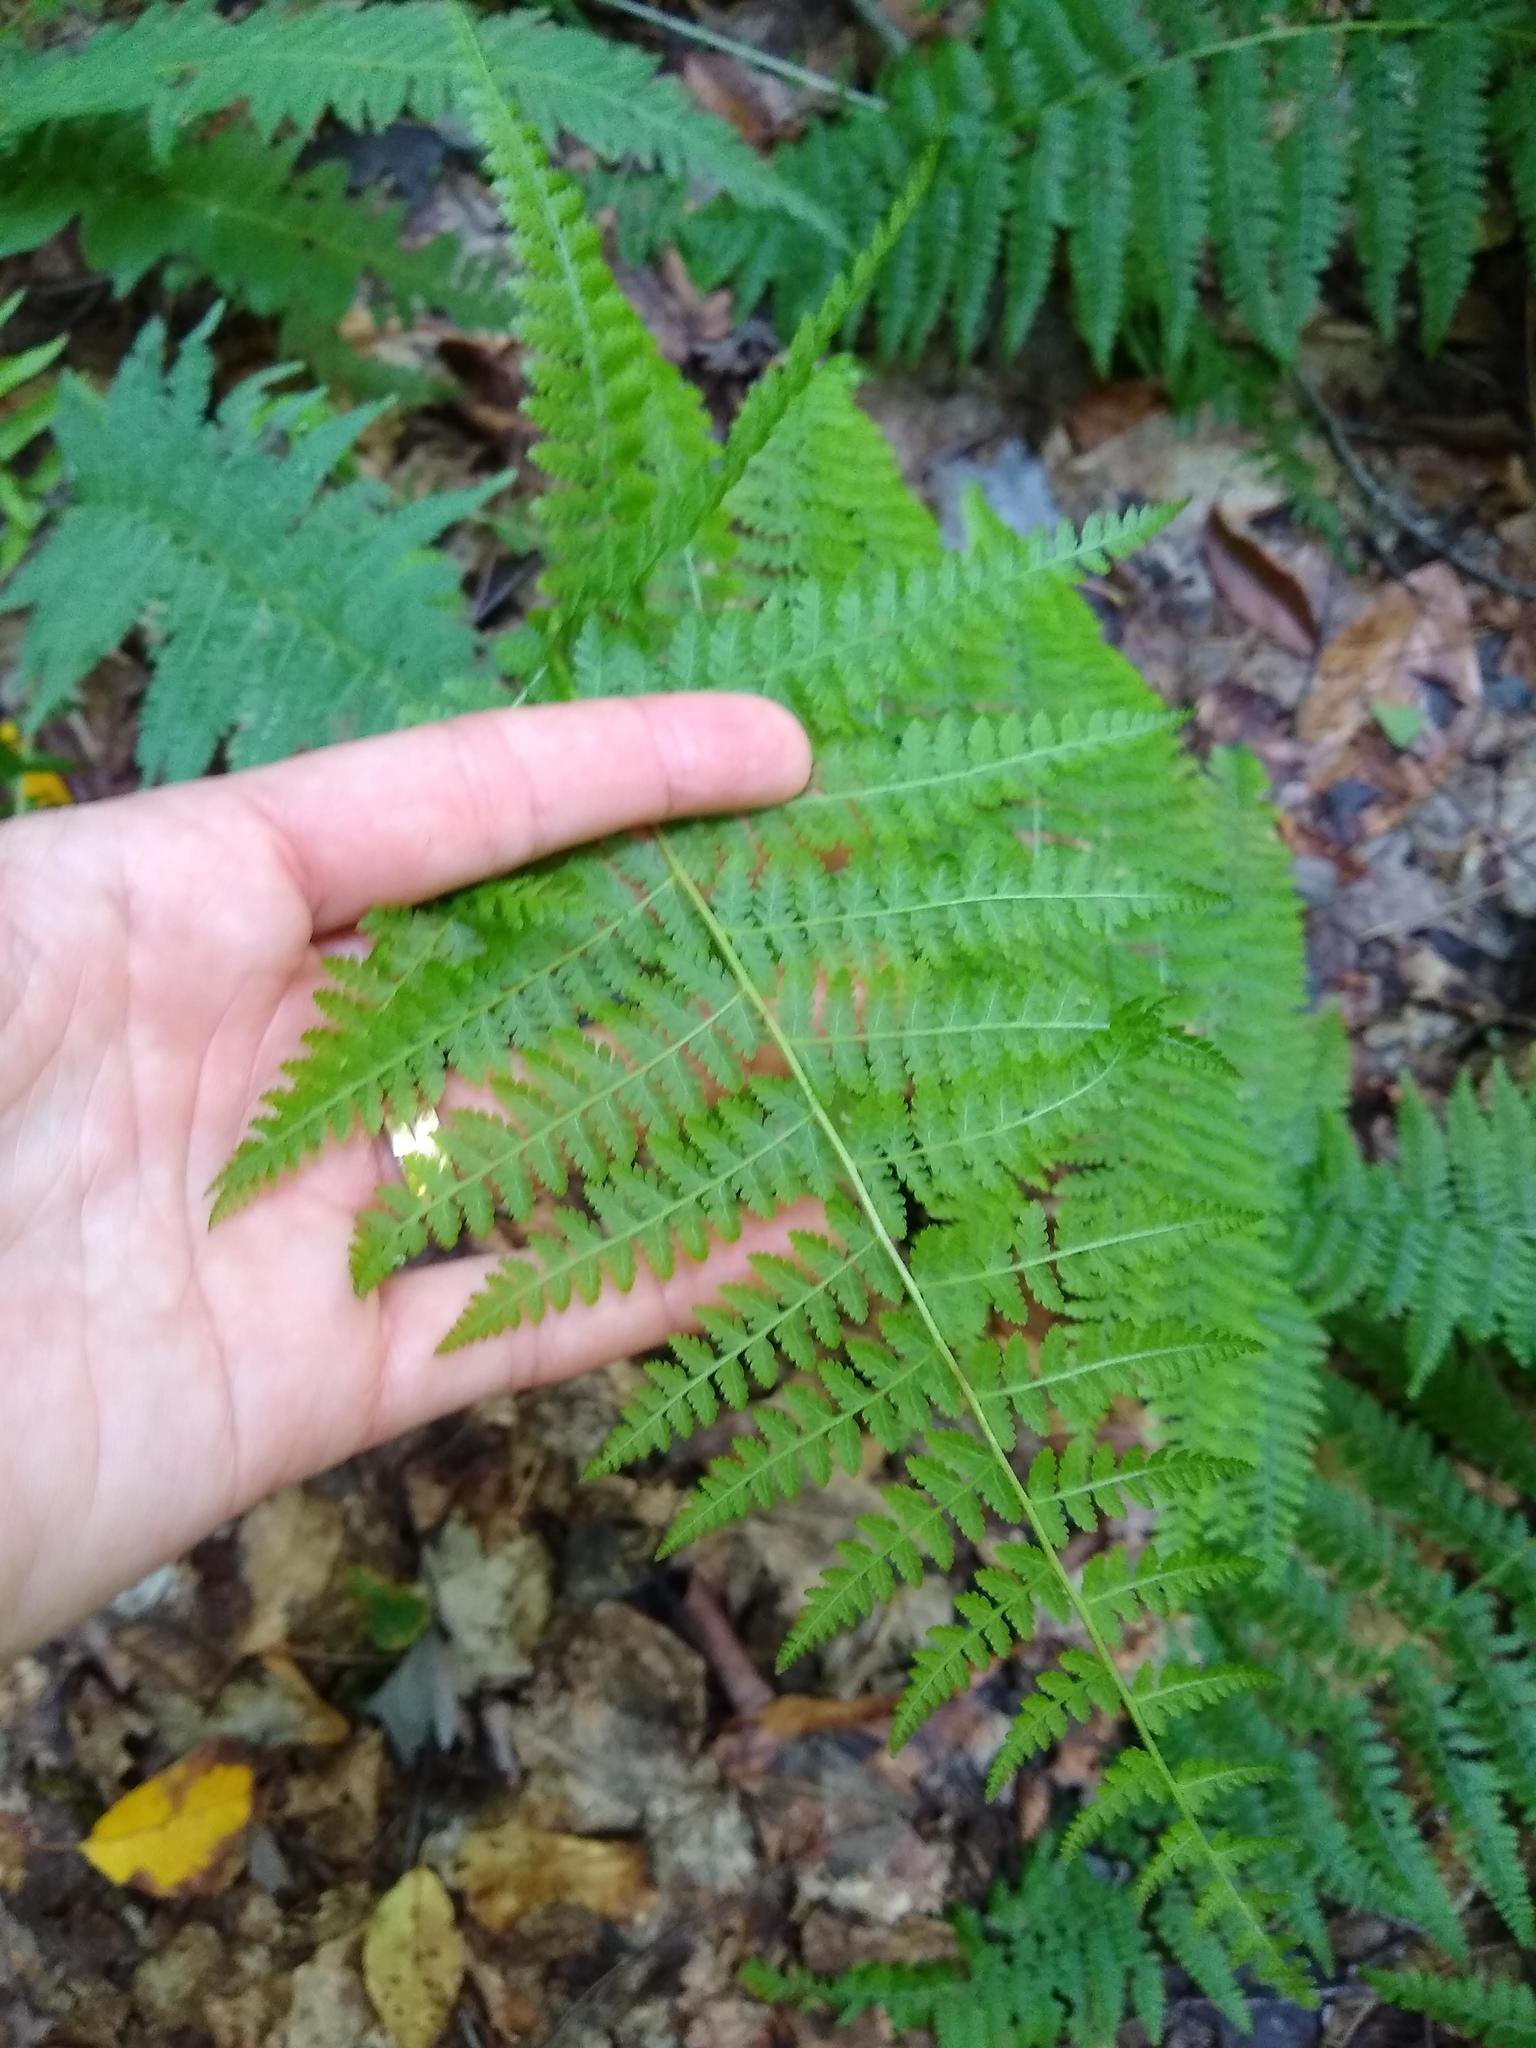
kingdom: Plantae
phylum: Tracheophyta
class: Polypodiopsida
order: Polypodiales
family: Dennstaedtiaceae
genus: Sitobolium
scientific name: Sitobolium punctilobum
